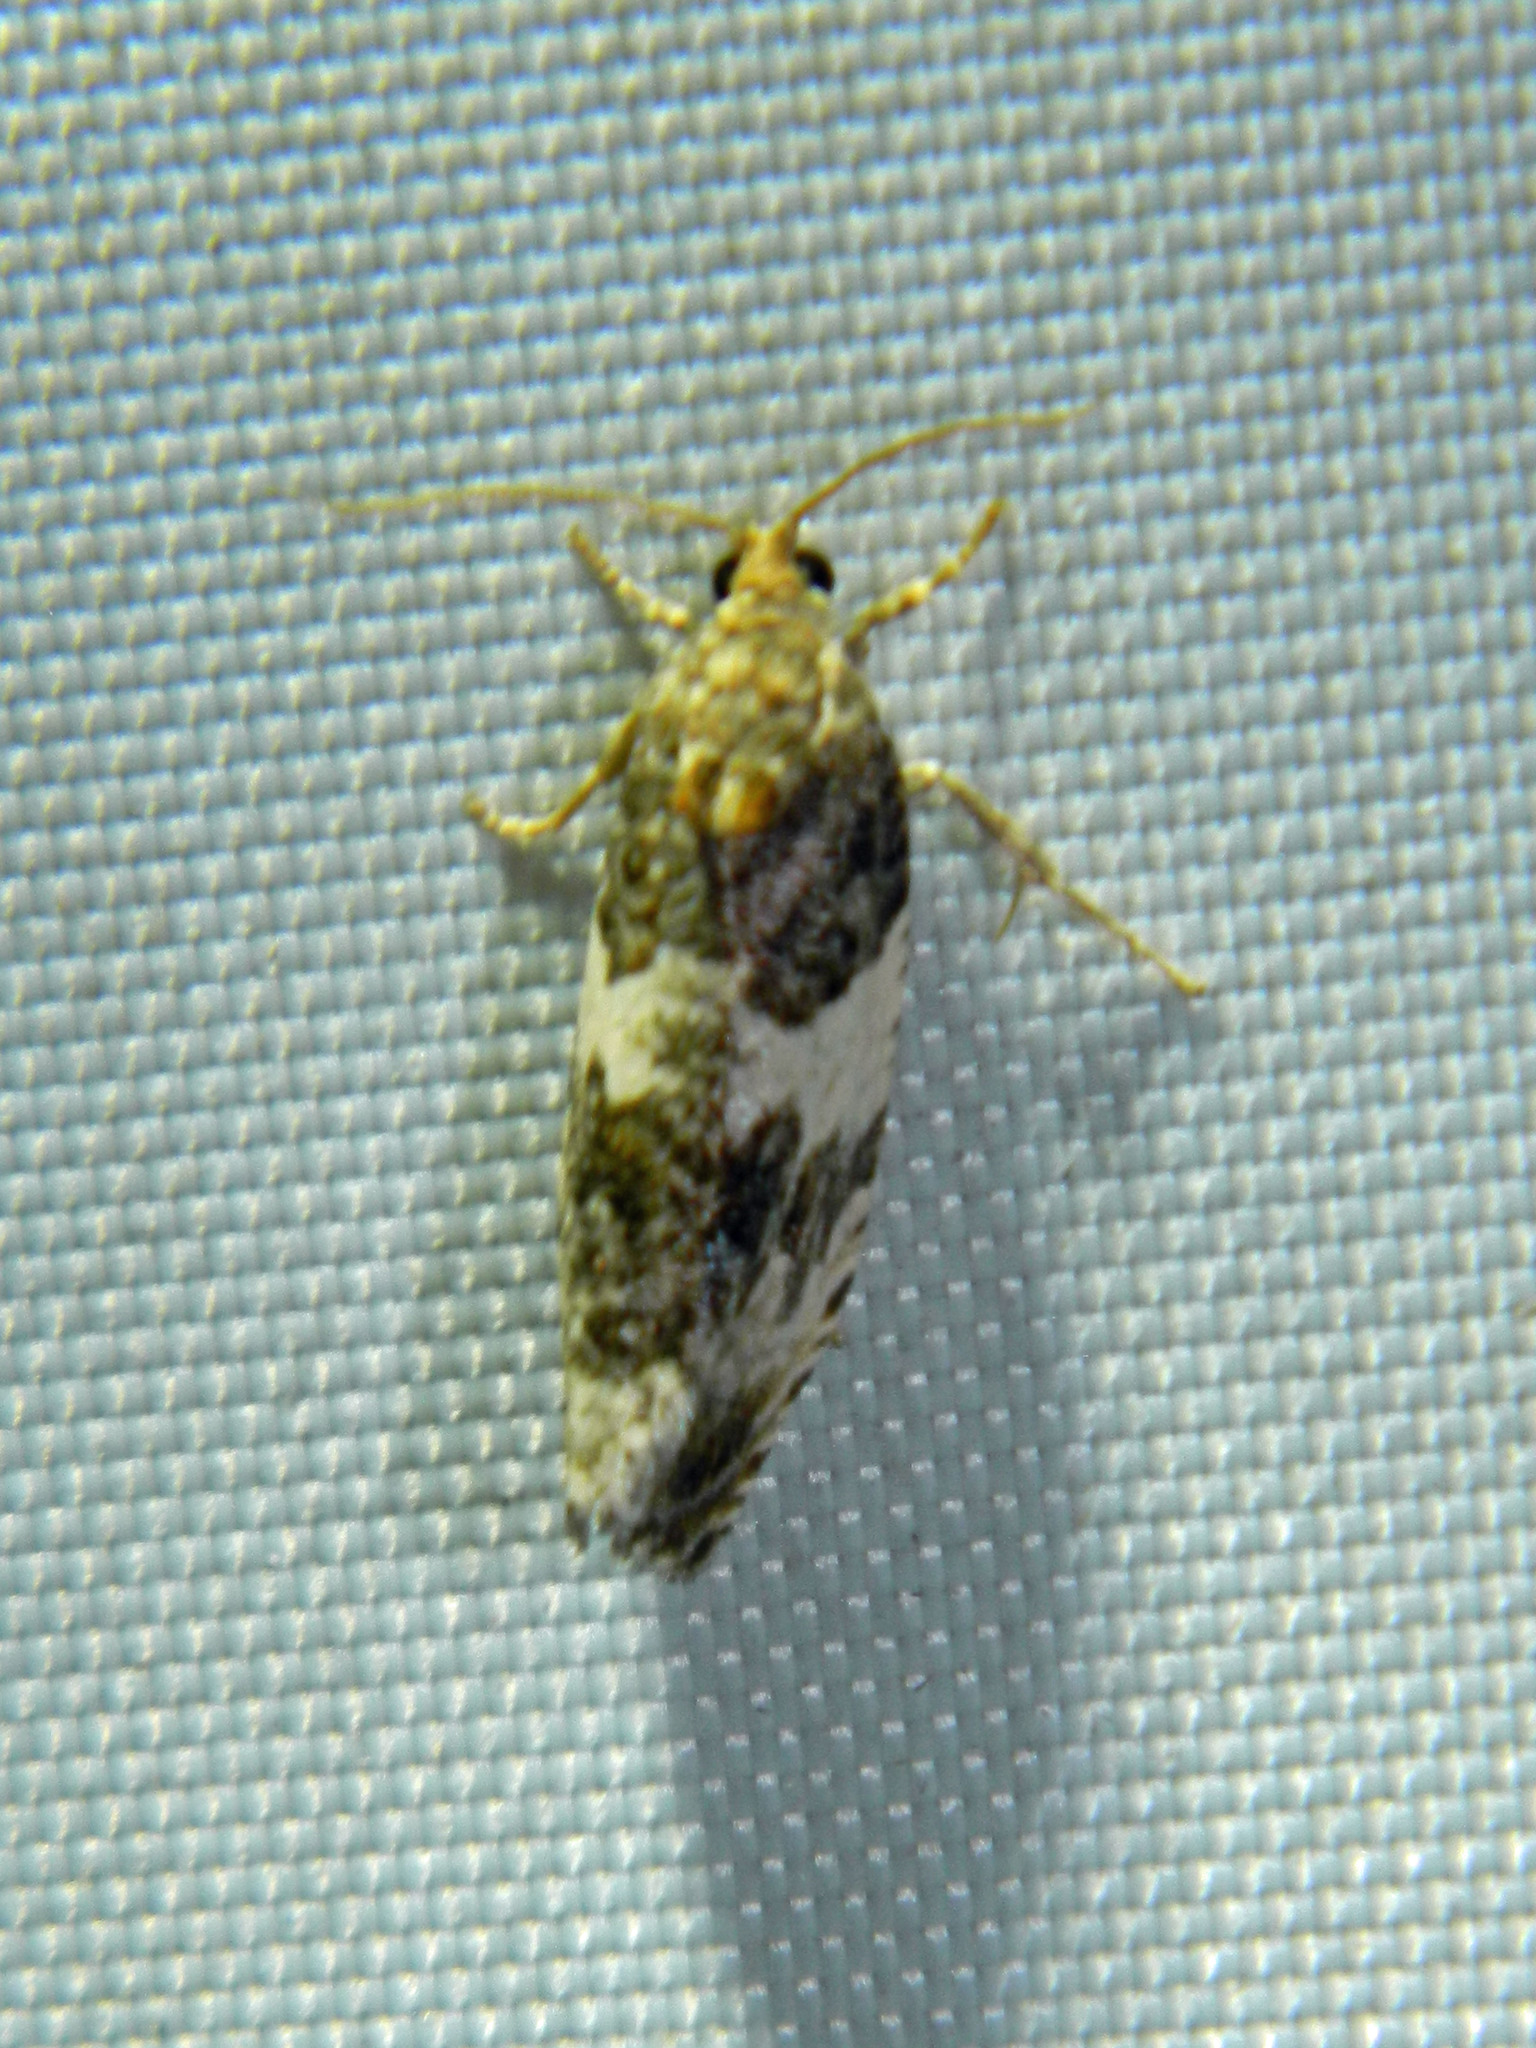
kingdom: Animalia
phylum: Arthropoda
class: Insecta
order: Lepidoptera
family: Tortricidae
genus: Pseudosciaphila
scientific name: Pseudosciaphila duplex
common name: Poplar leafroller moth
